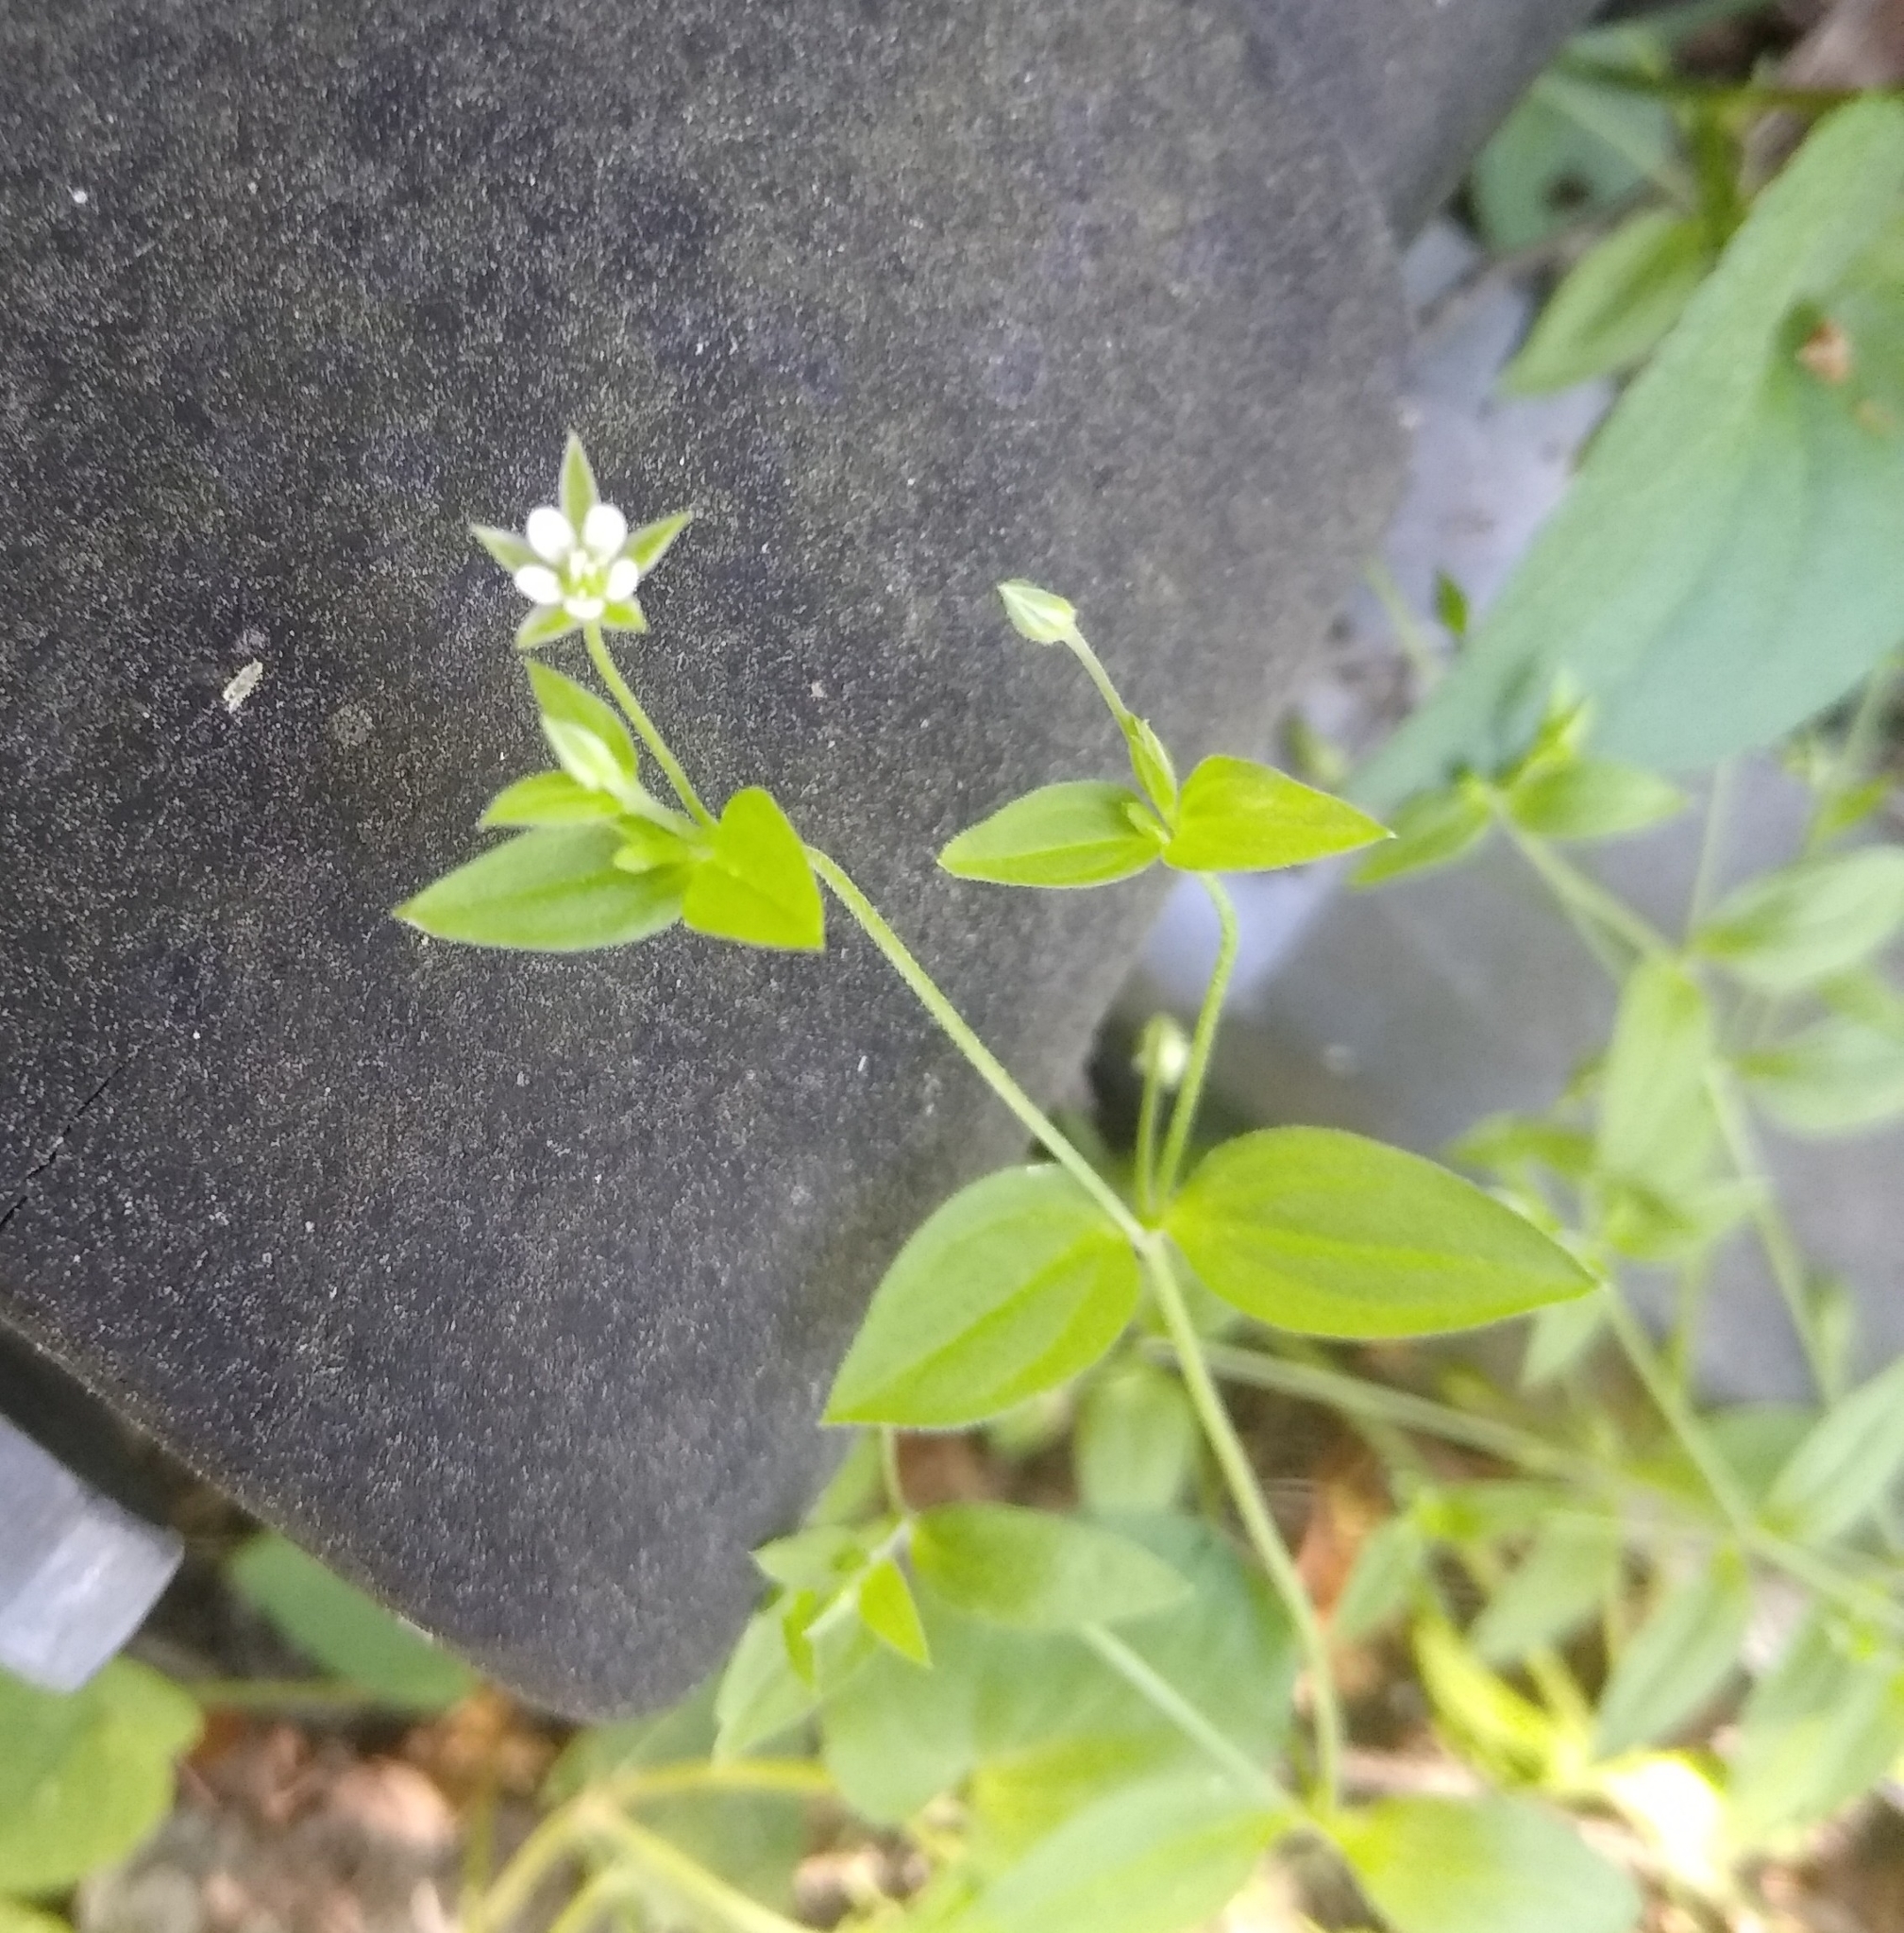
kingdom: Plantae
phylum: Tracheophyta
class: Magnoliopsida
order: Caryophyllales
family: Caryophyllaceae
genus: Moehringia
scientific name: Moehringia trinervia
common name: Three-nerved sandwort
